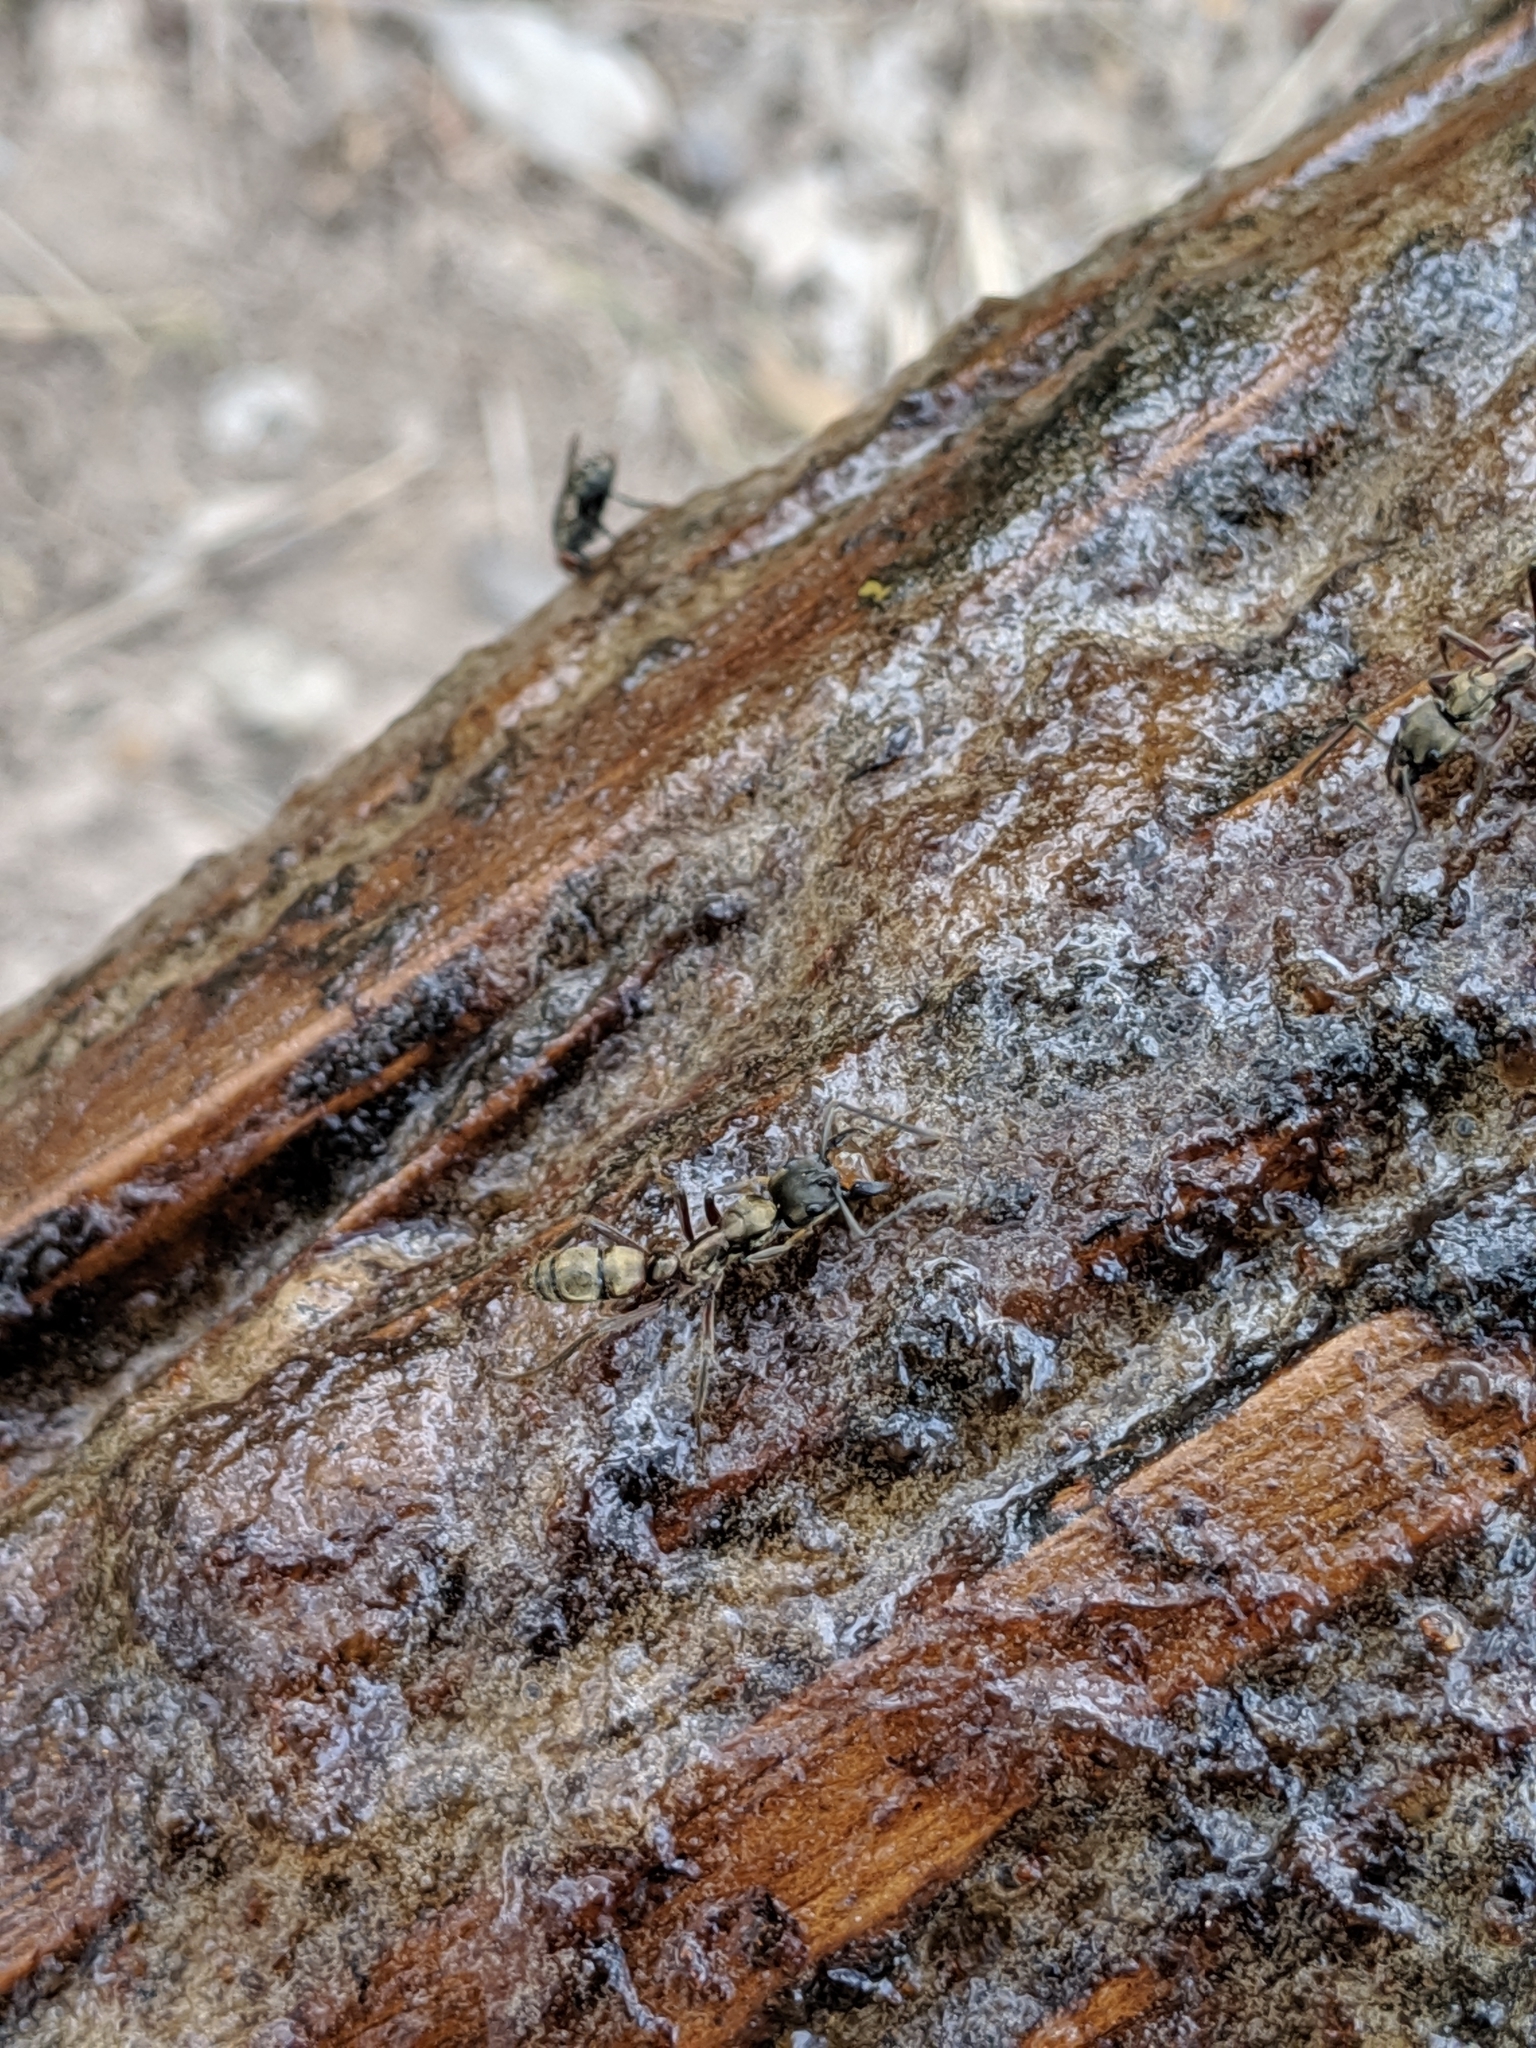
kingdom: Animalia
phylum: Arthropoda
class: Insecta
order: Hymenoptera
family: Formicidae
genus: Pachycondyla
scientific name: Pachycondyla villosa
